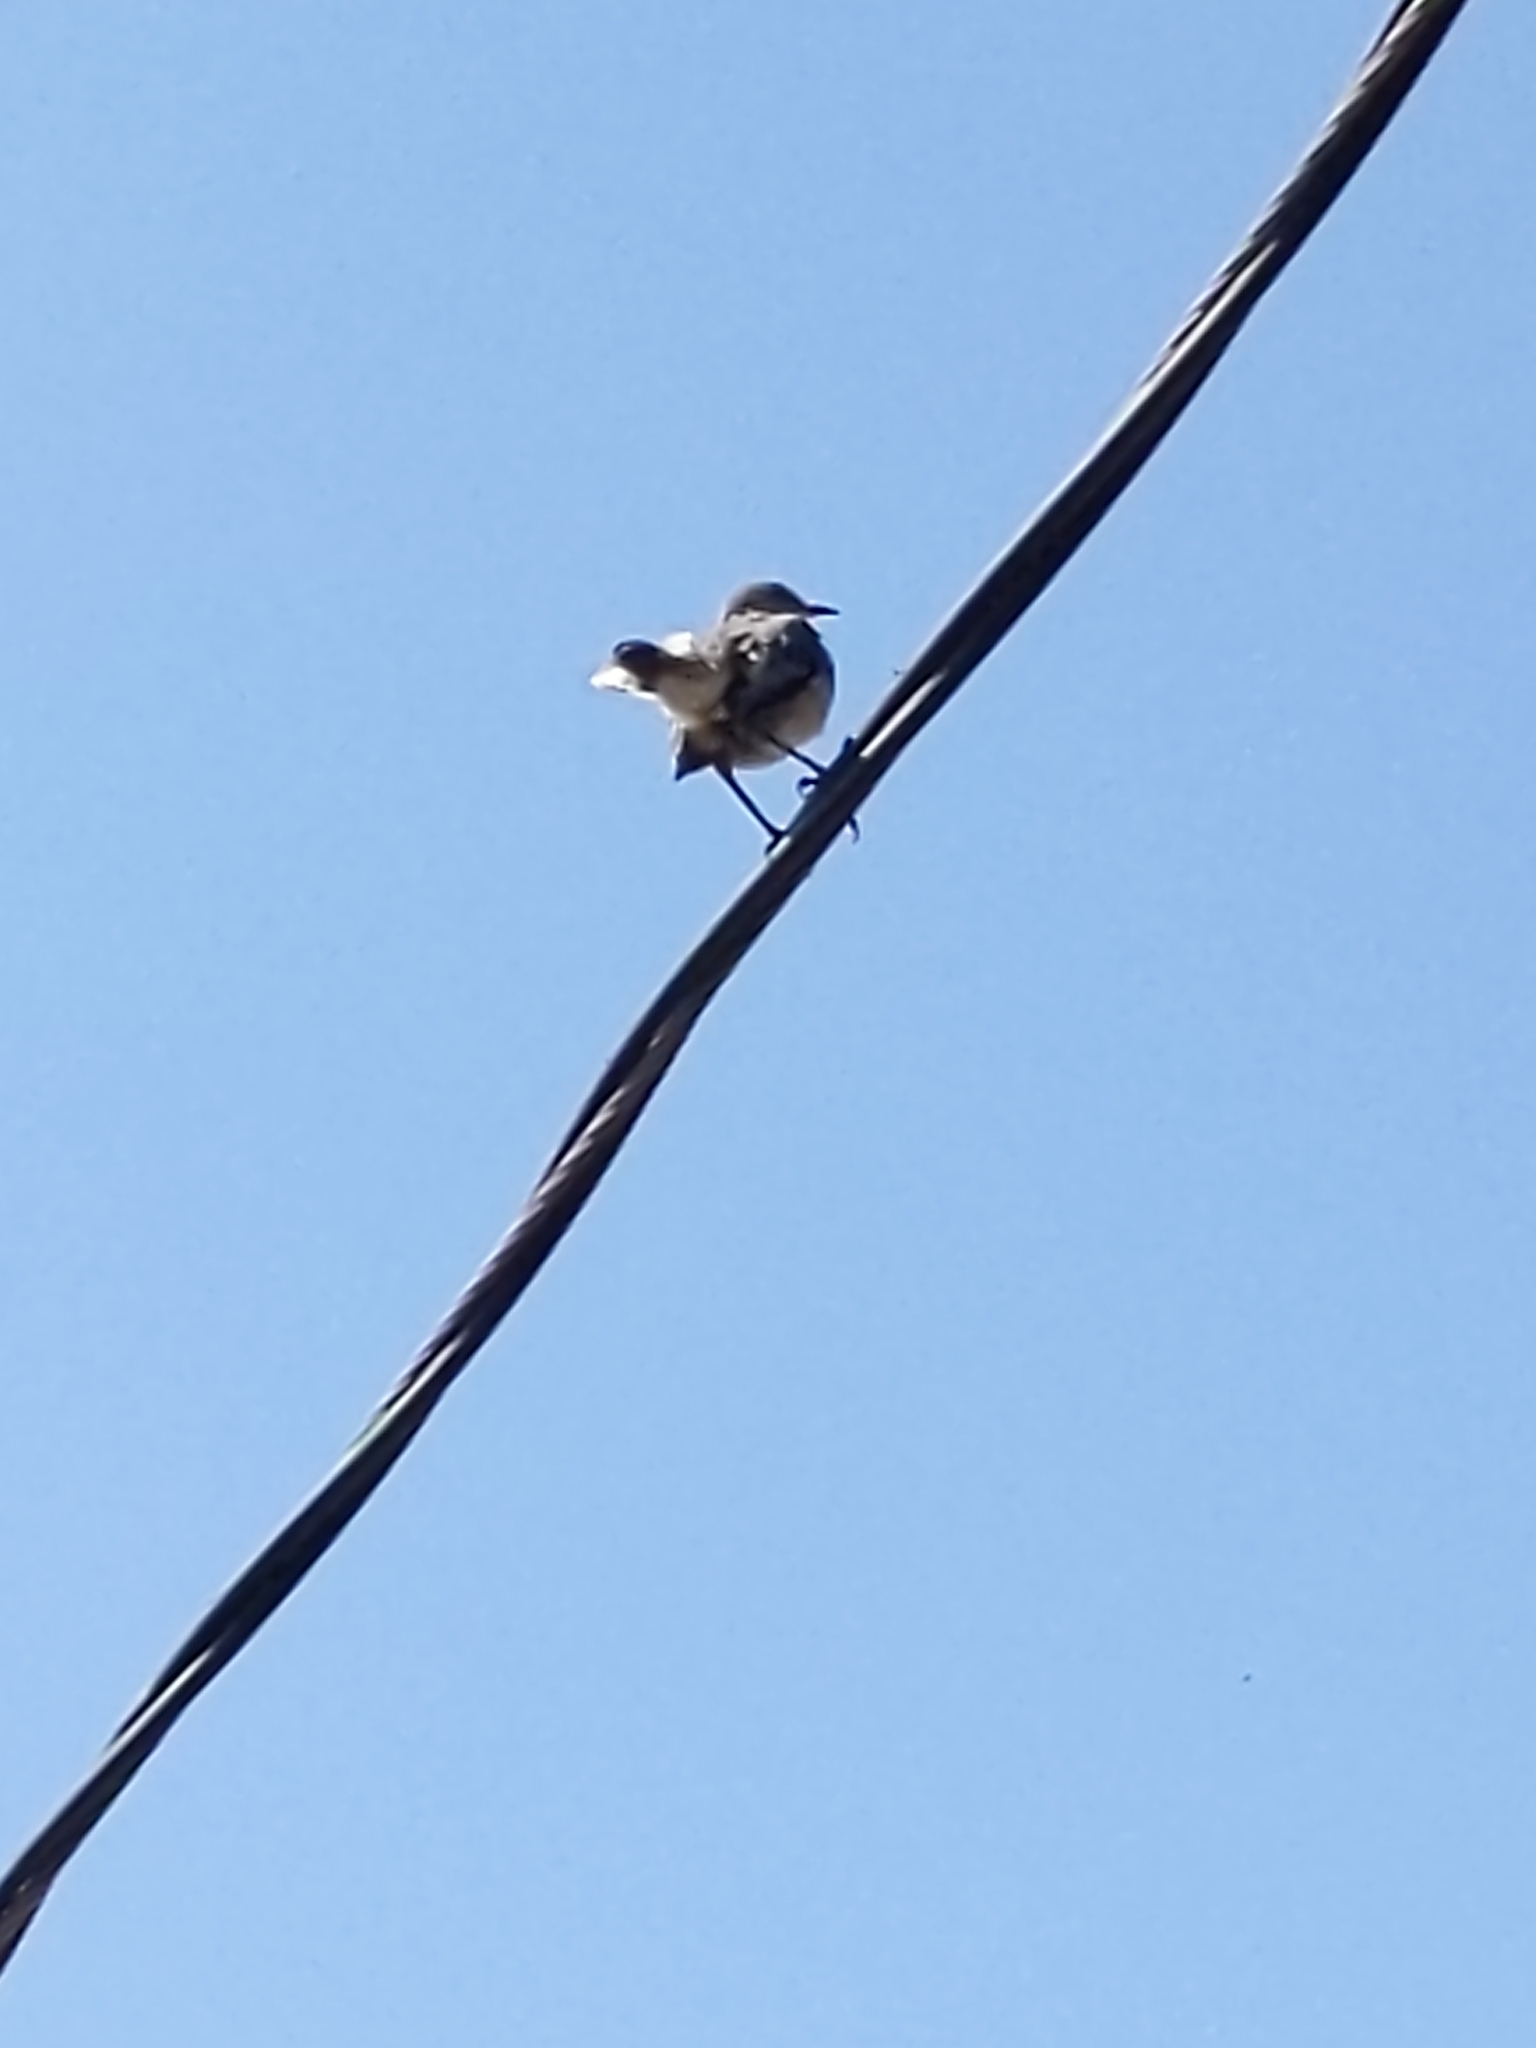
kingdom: Animalia
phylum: Chordata
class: Aves
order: Passeriformes
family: Mimidae
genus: Mimus
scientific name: Mimus polyglottos
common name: Northern mockingbird
